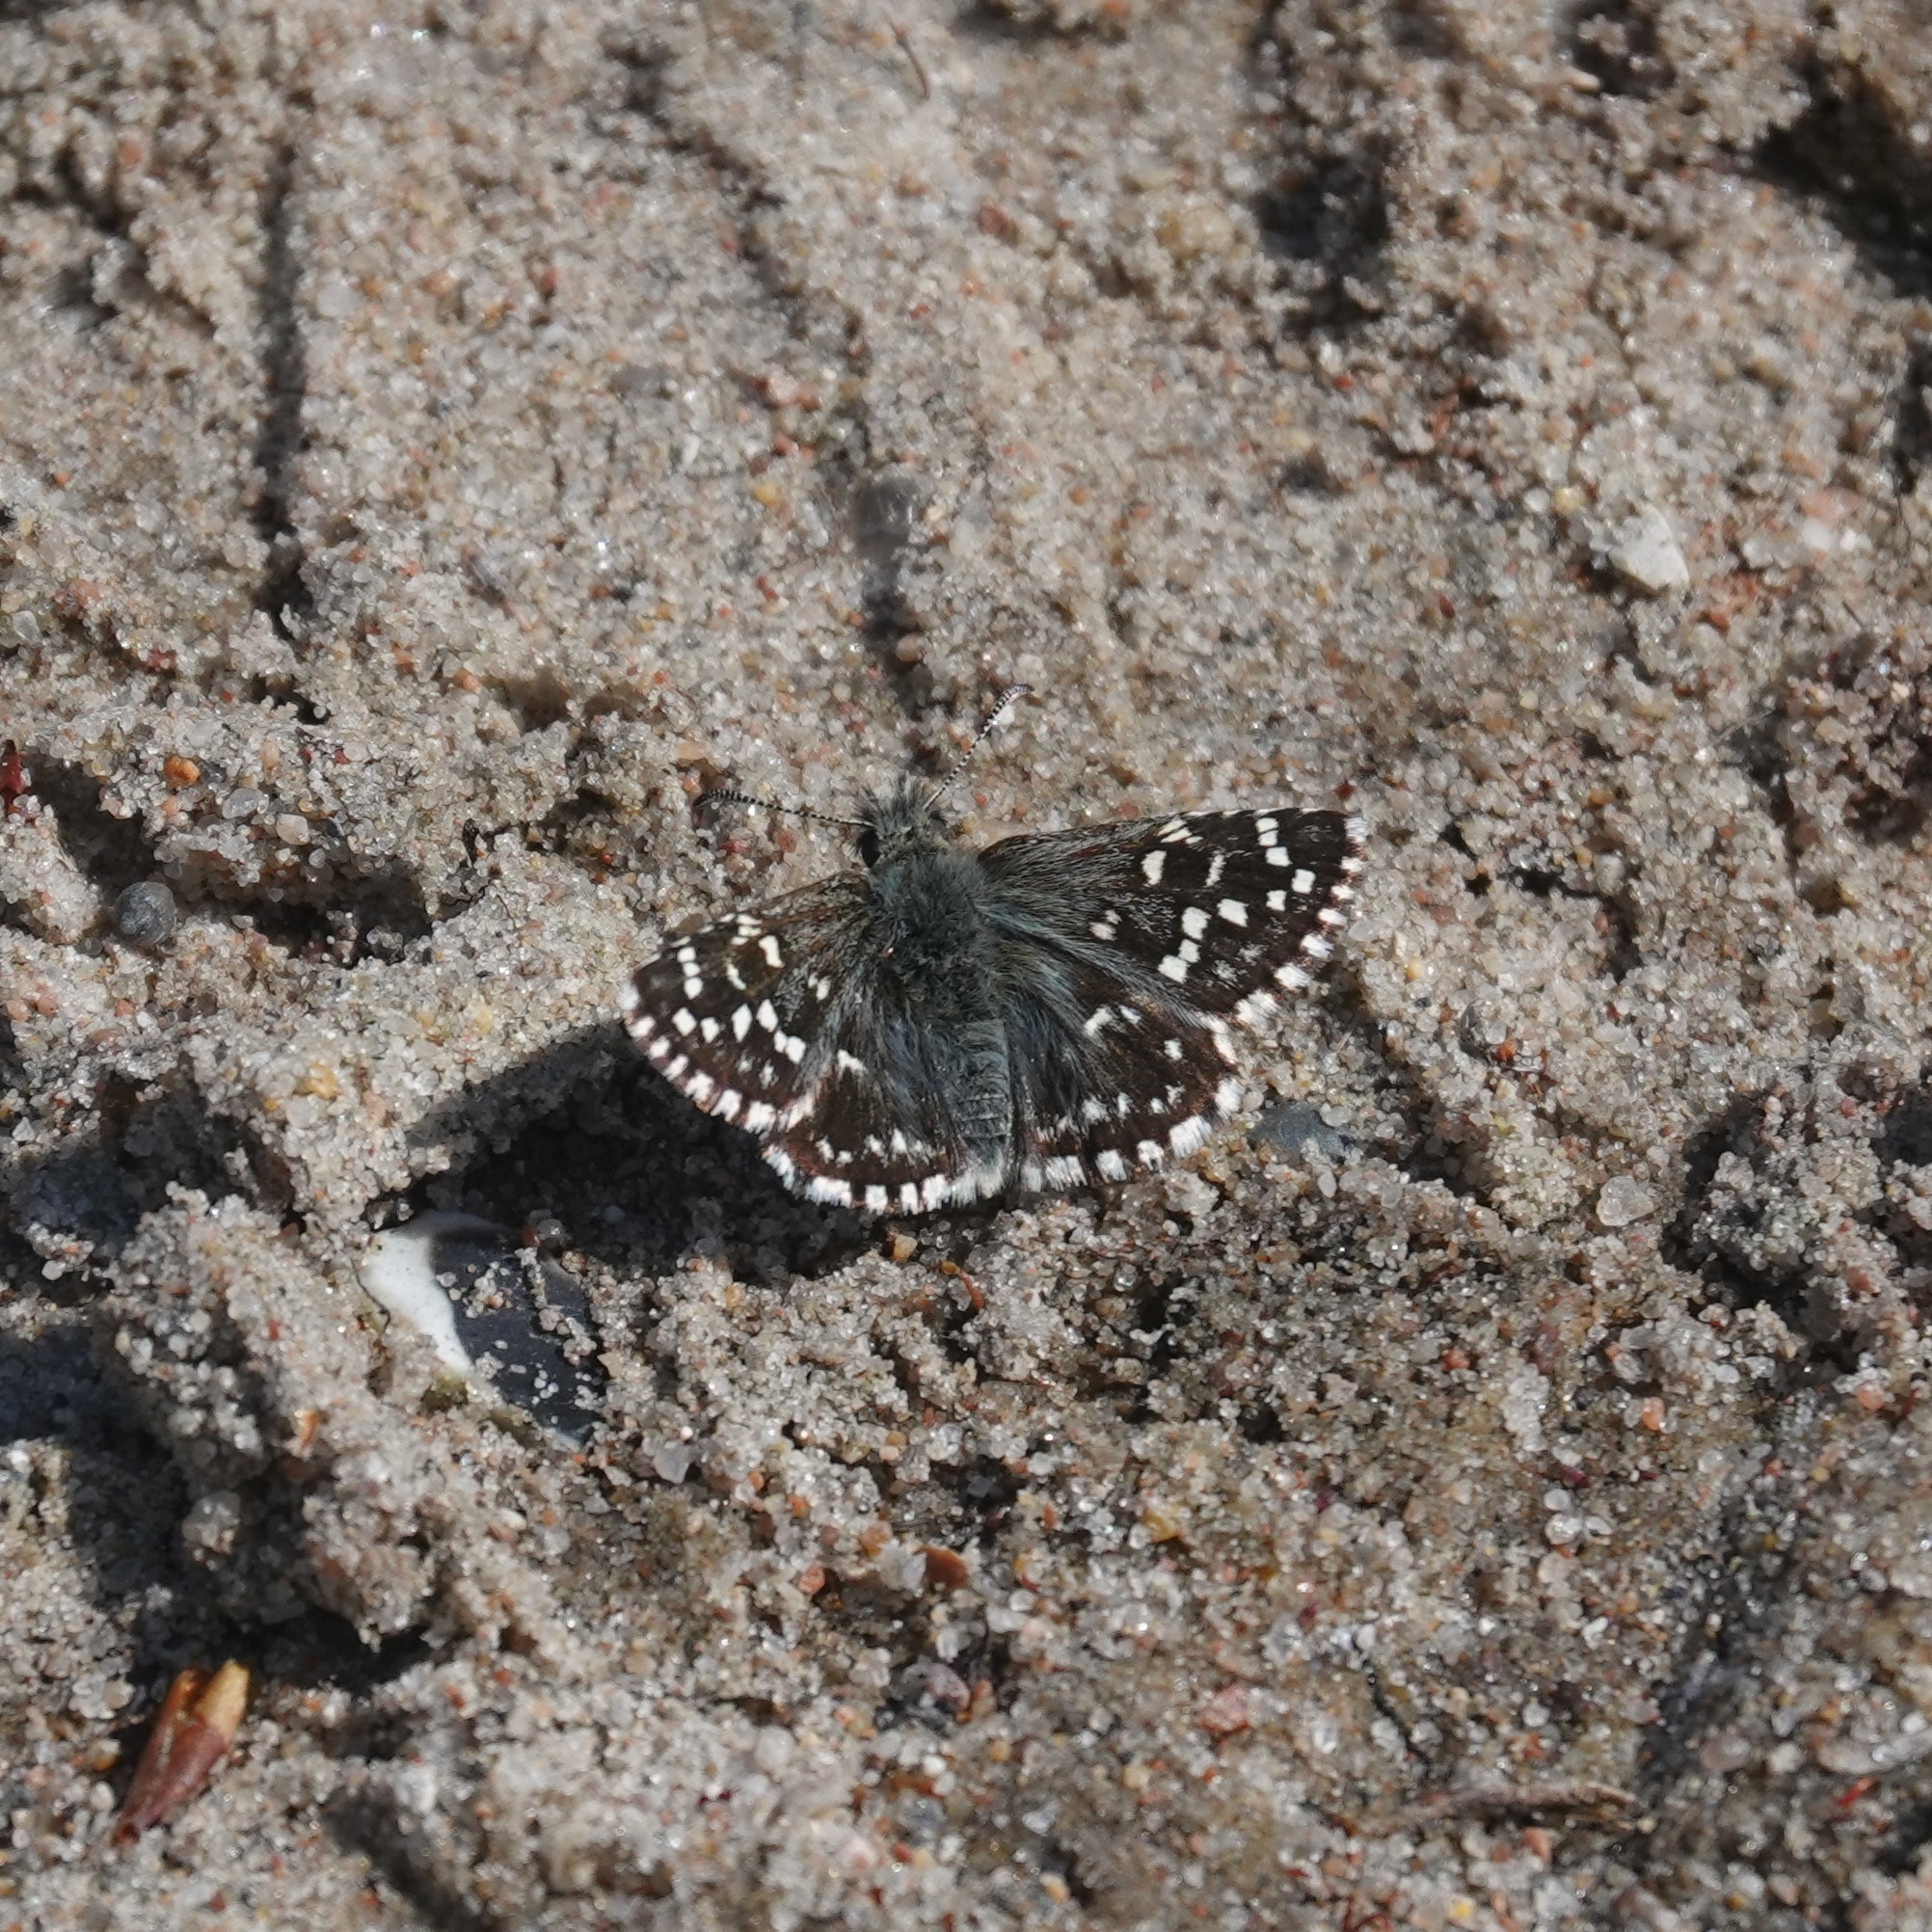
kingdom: Animalia
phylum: Arthropoda
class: Insecta
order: Lepidoptera
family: Hesperiidae
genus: Pyrgus
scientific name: Pyrgus malvae
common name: Grizzled skipper
